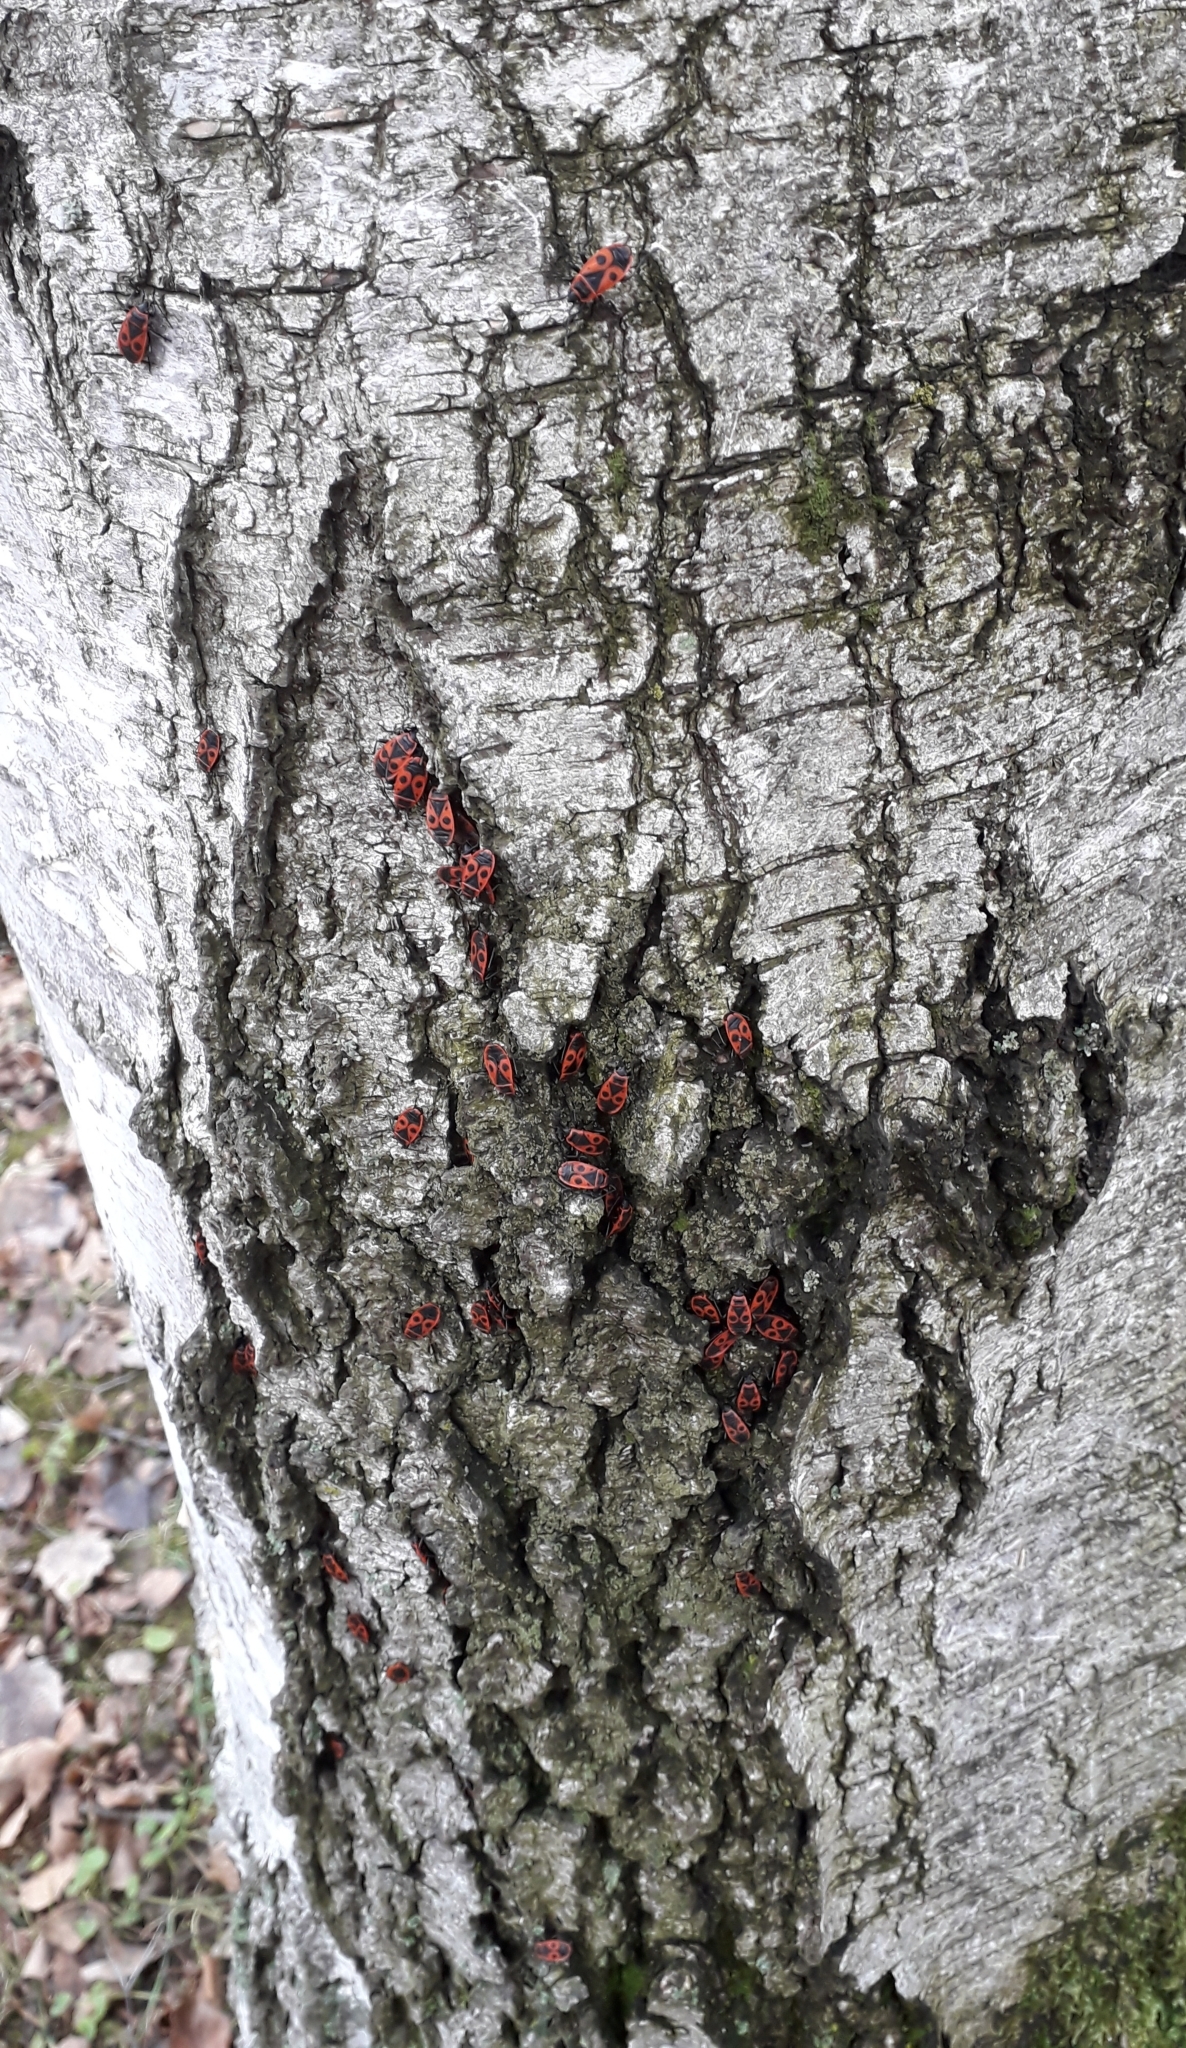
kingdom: Animalia
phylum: Arthropoda
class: Insecta
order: Hemiptera
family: Pyrrhocoridae
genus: Pyrrhocoris
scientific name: Pyrrhocoris apterus
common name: Firebug
